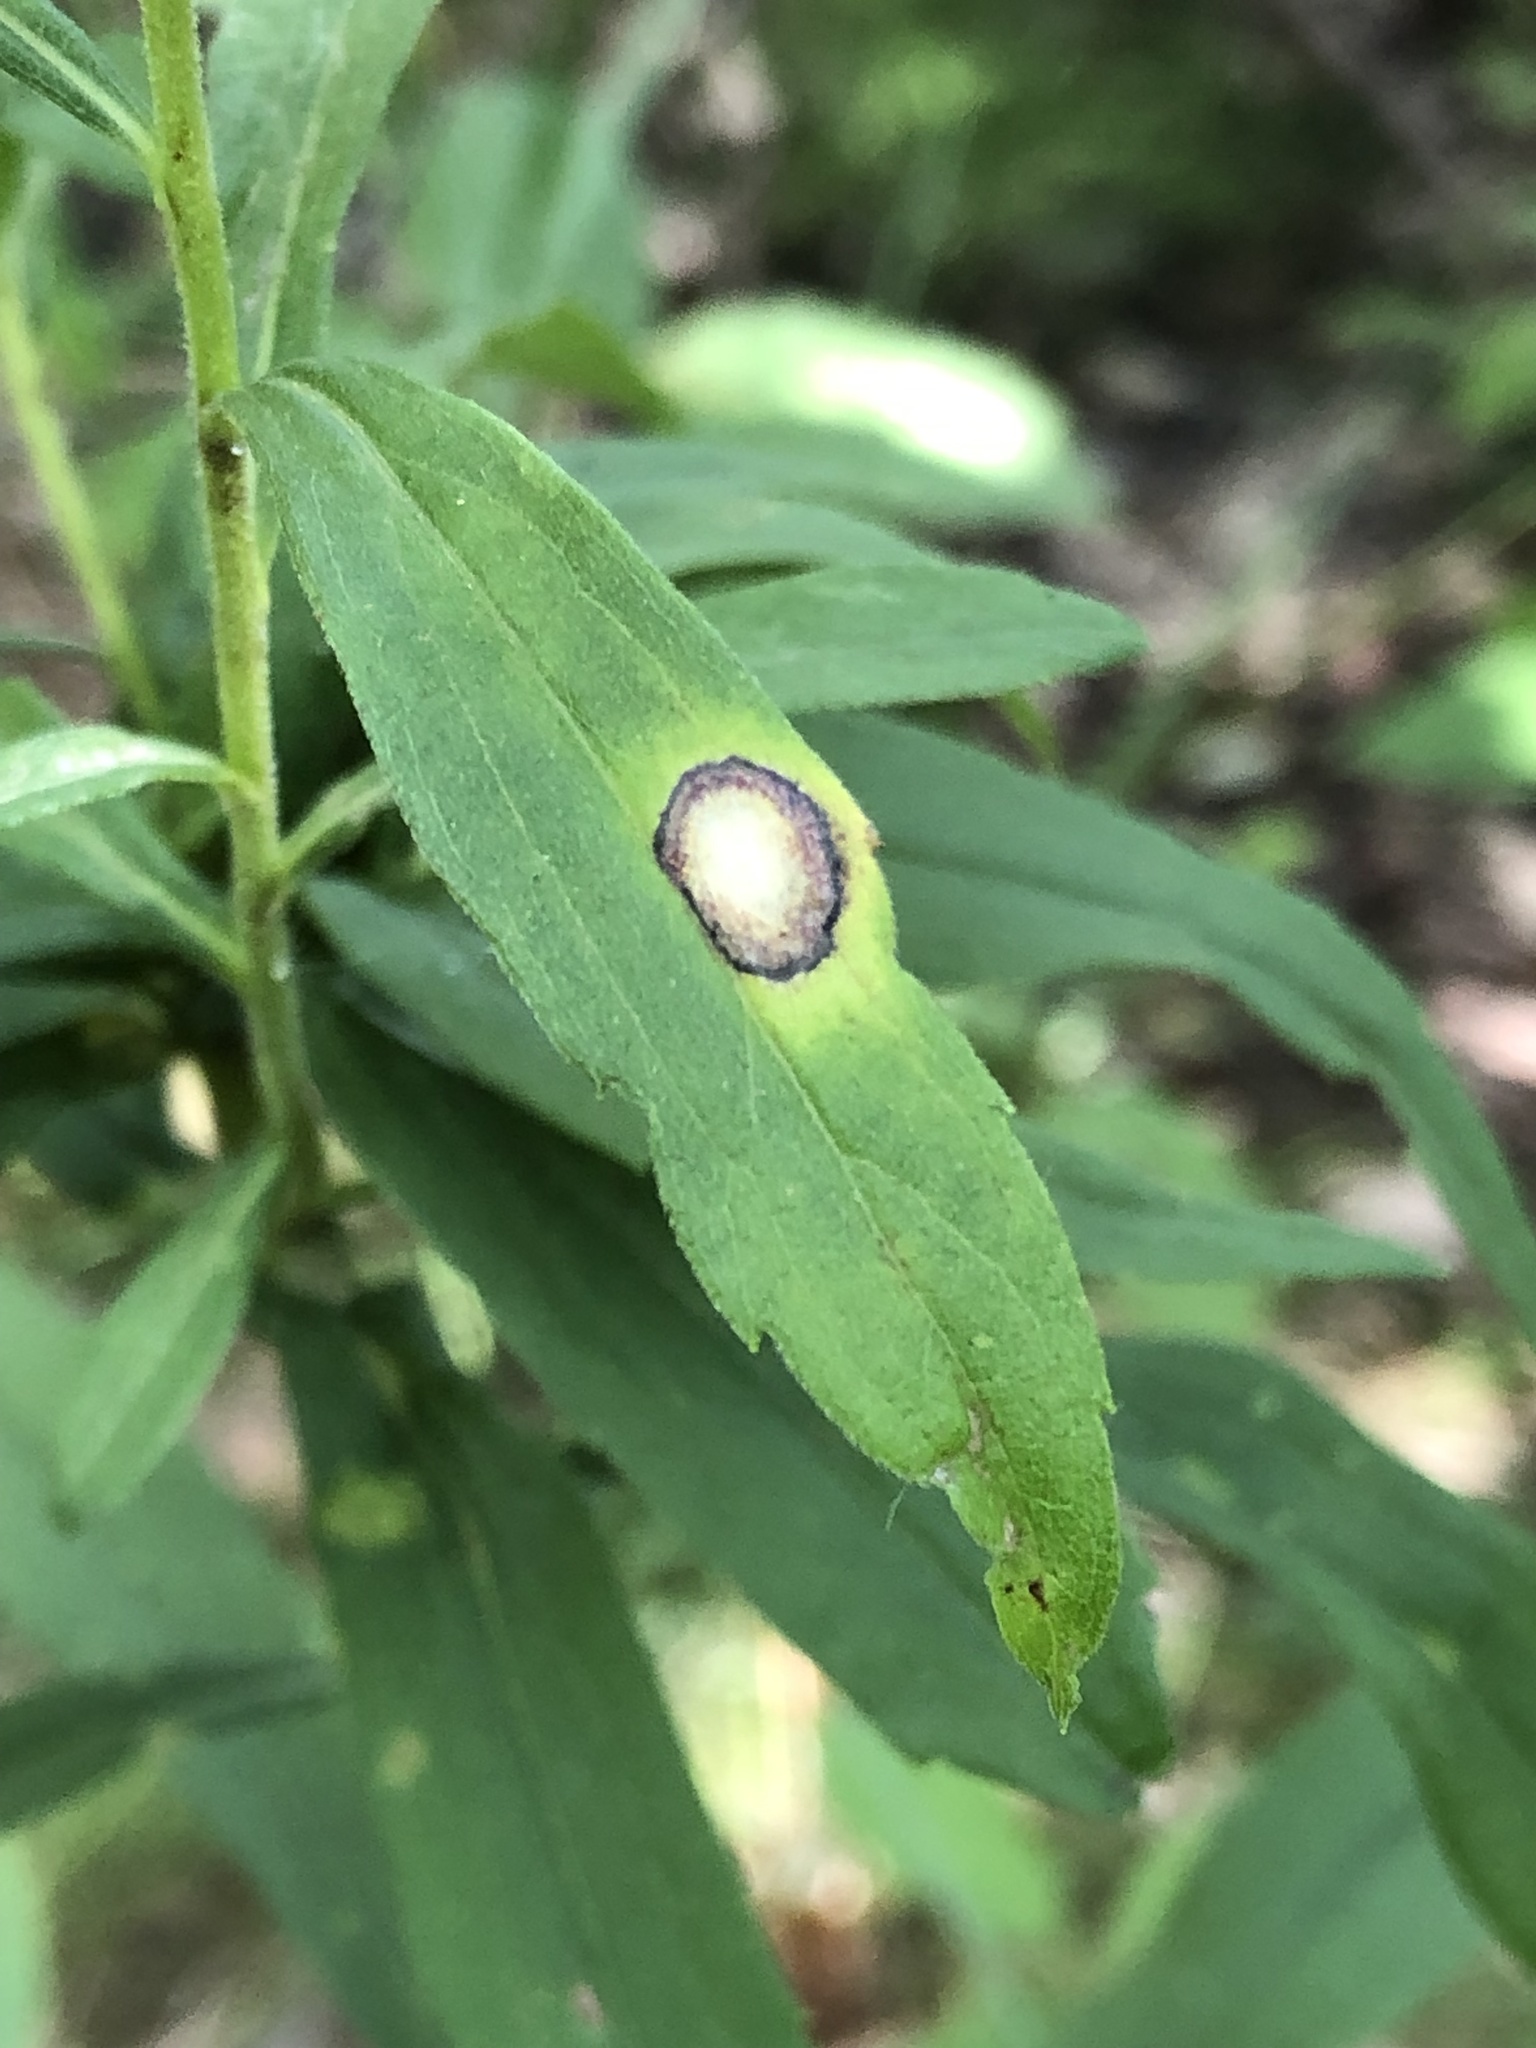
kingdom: Animalia
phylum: Arthropoda
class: Insecta
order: Diptera
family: Cecidomyiidae
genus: Asteromyia
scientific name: Asteromyia carbonifera
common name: Carbonifera goldenrod gall midge
